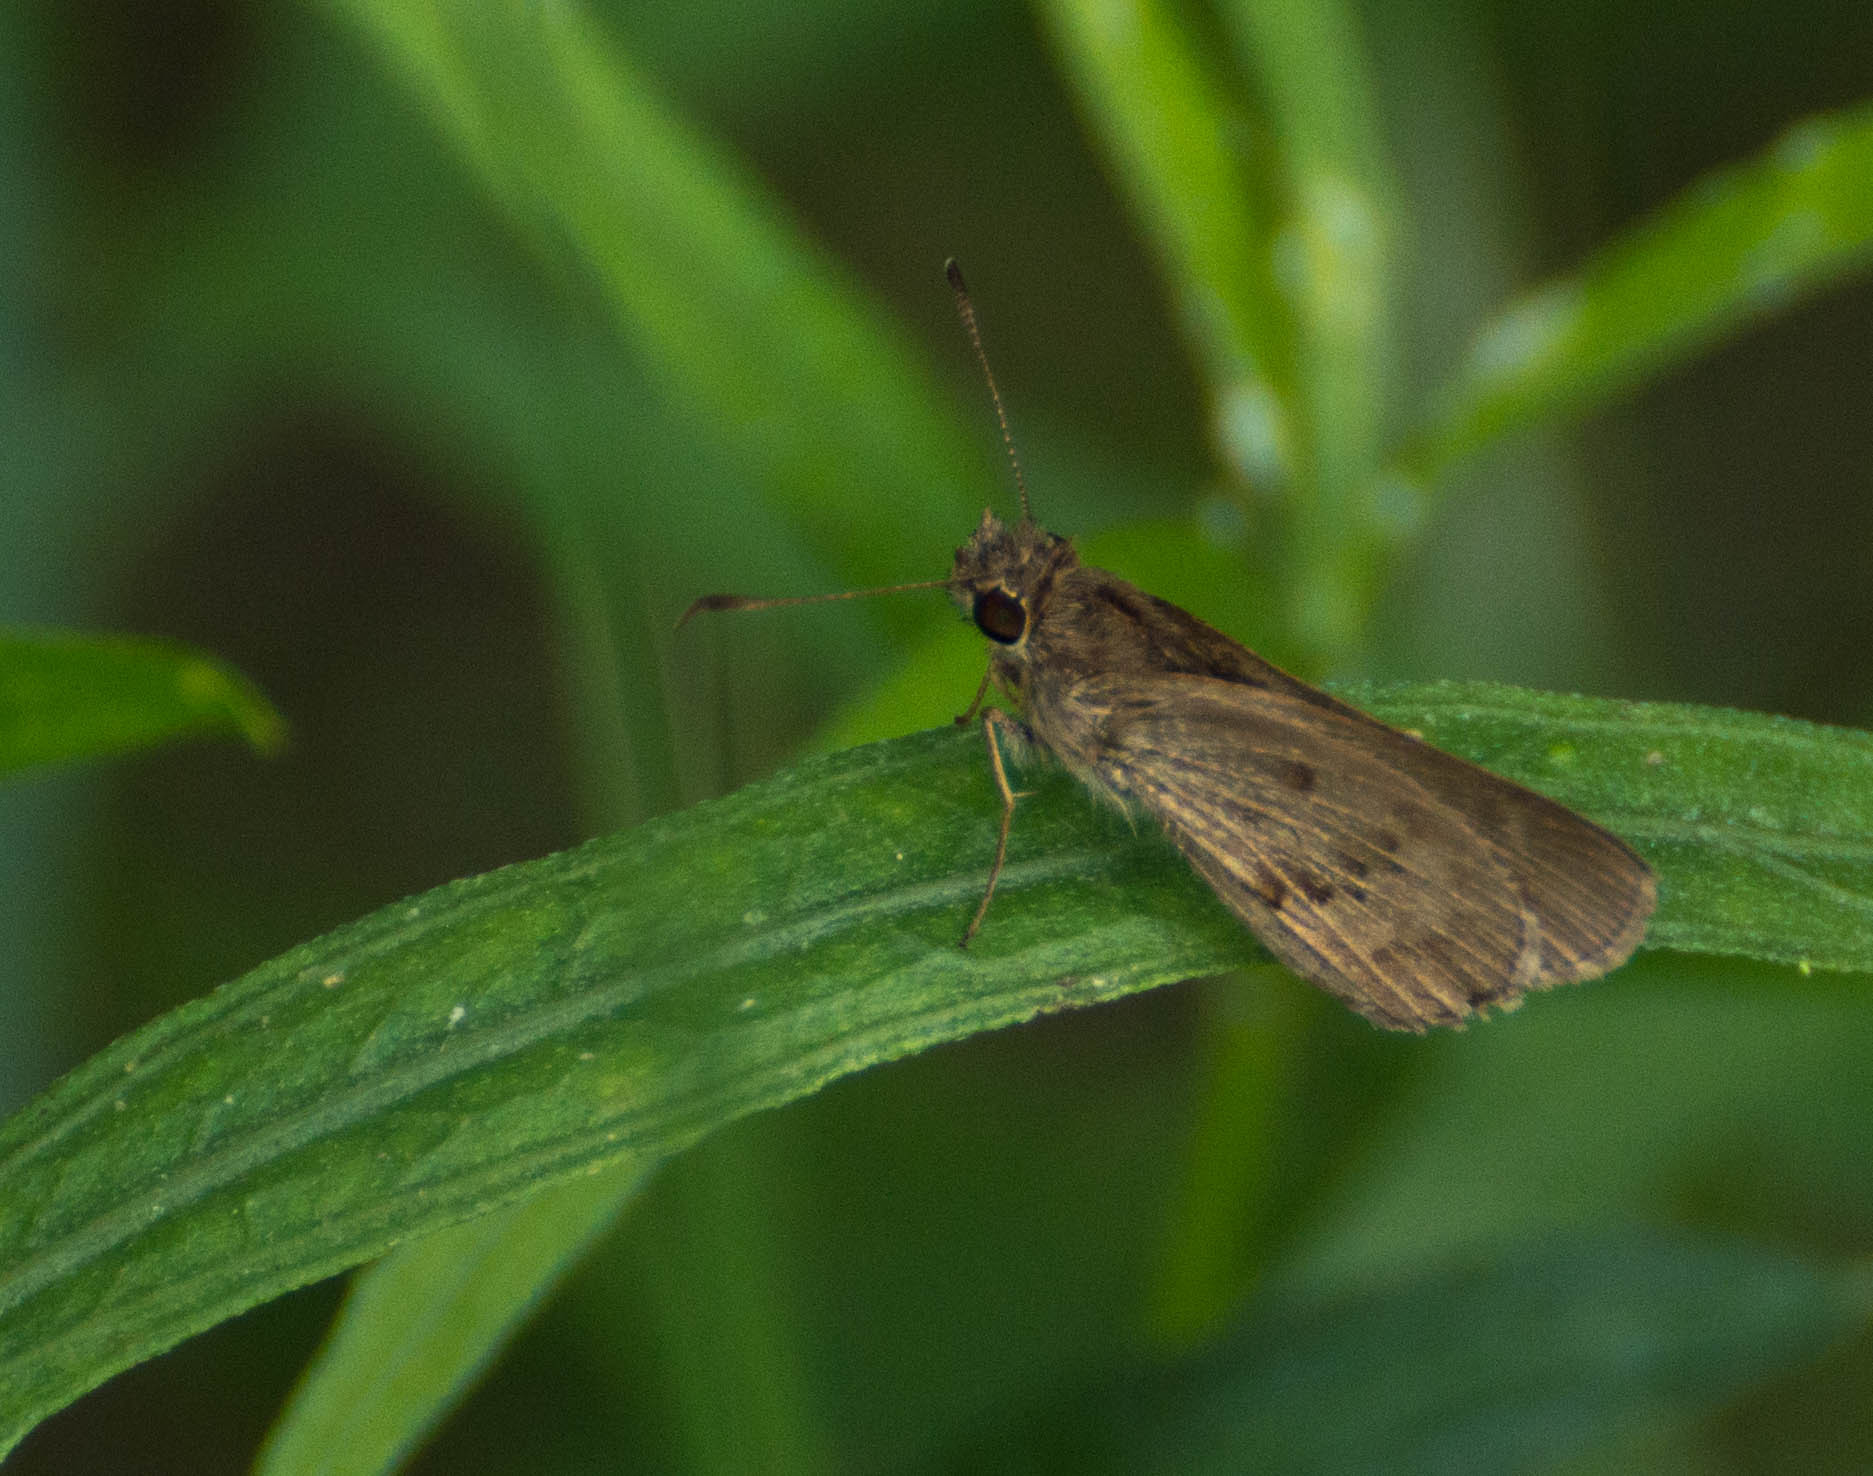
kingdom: Animalia
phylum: Arthropoda
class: Insecta
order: Lepidoptera
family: Hesperiidae
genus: Cymaenes
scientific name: Cymaenes gisca
